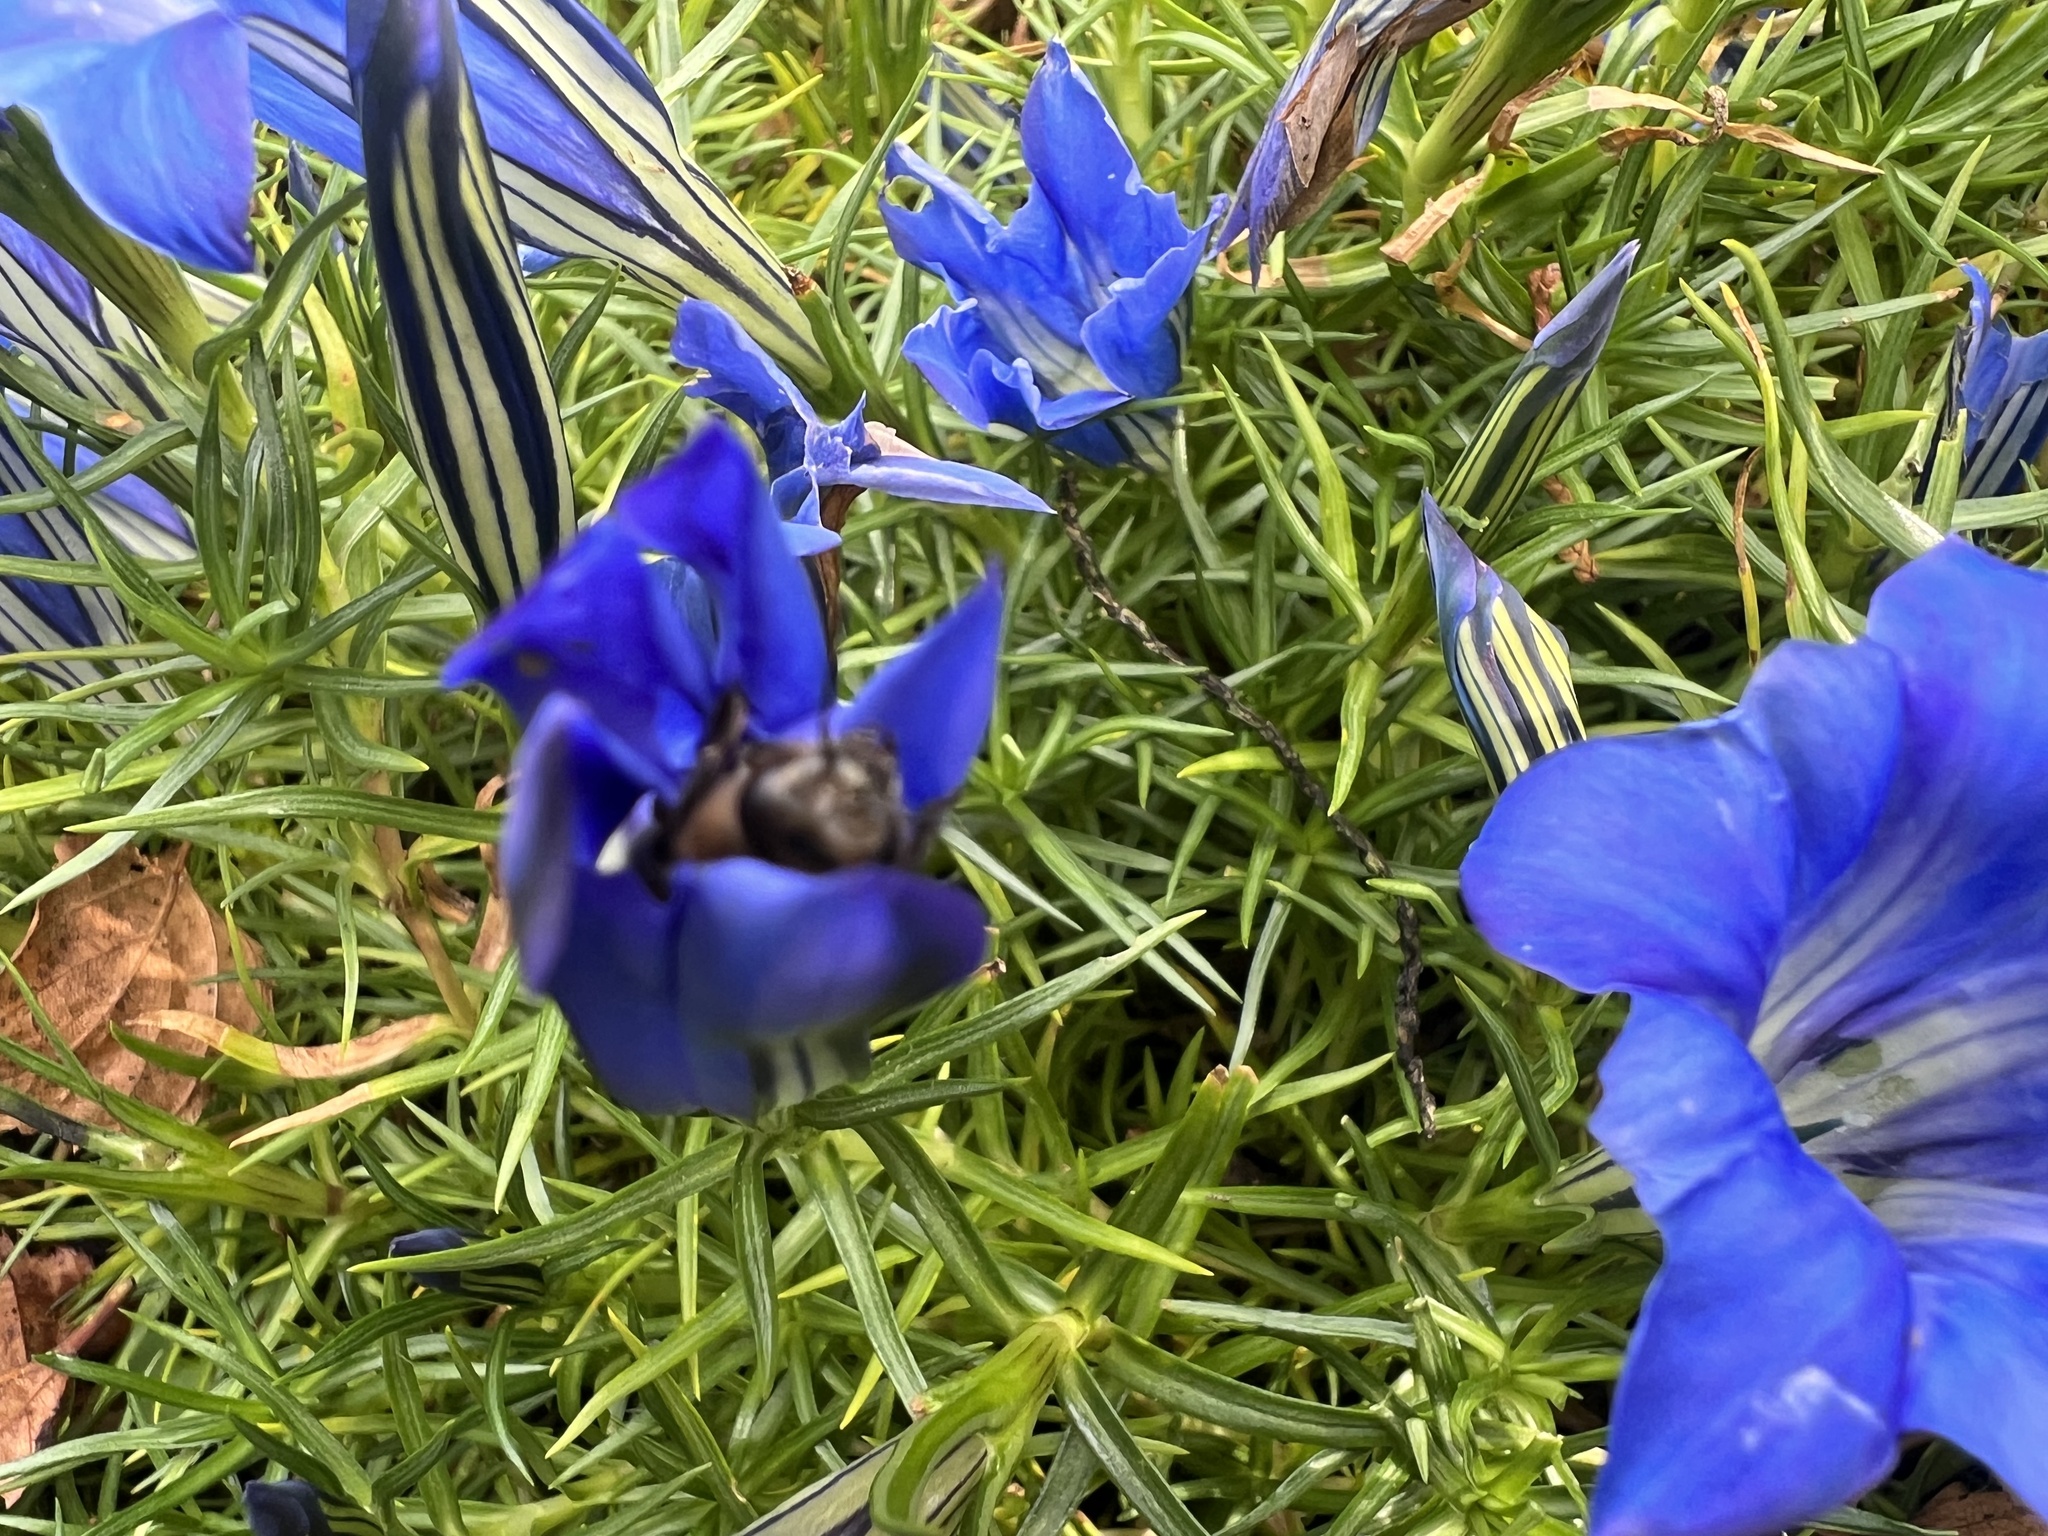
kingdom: Animalia
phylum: Arthropoda
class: Insecta
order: Hymenoptera
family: Apidae
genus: Apis
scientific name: Apis mellifera
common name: Honey bee
